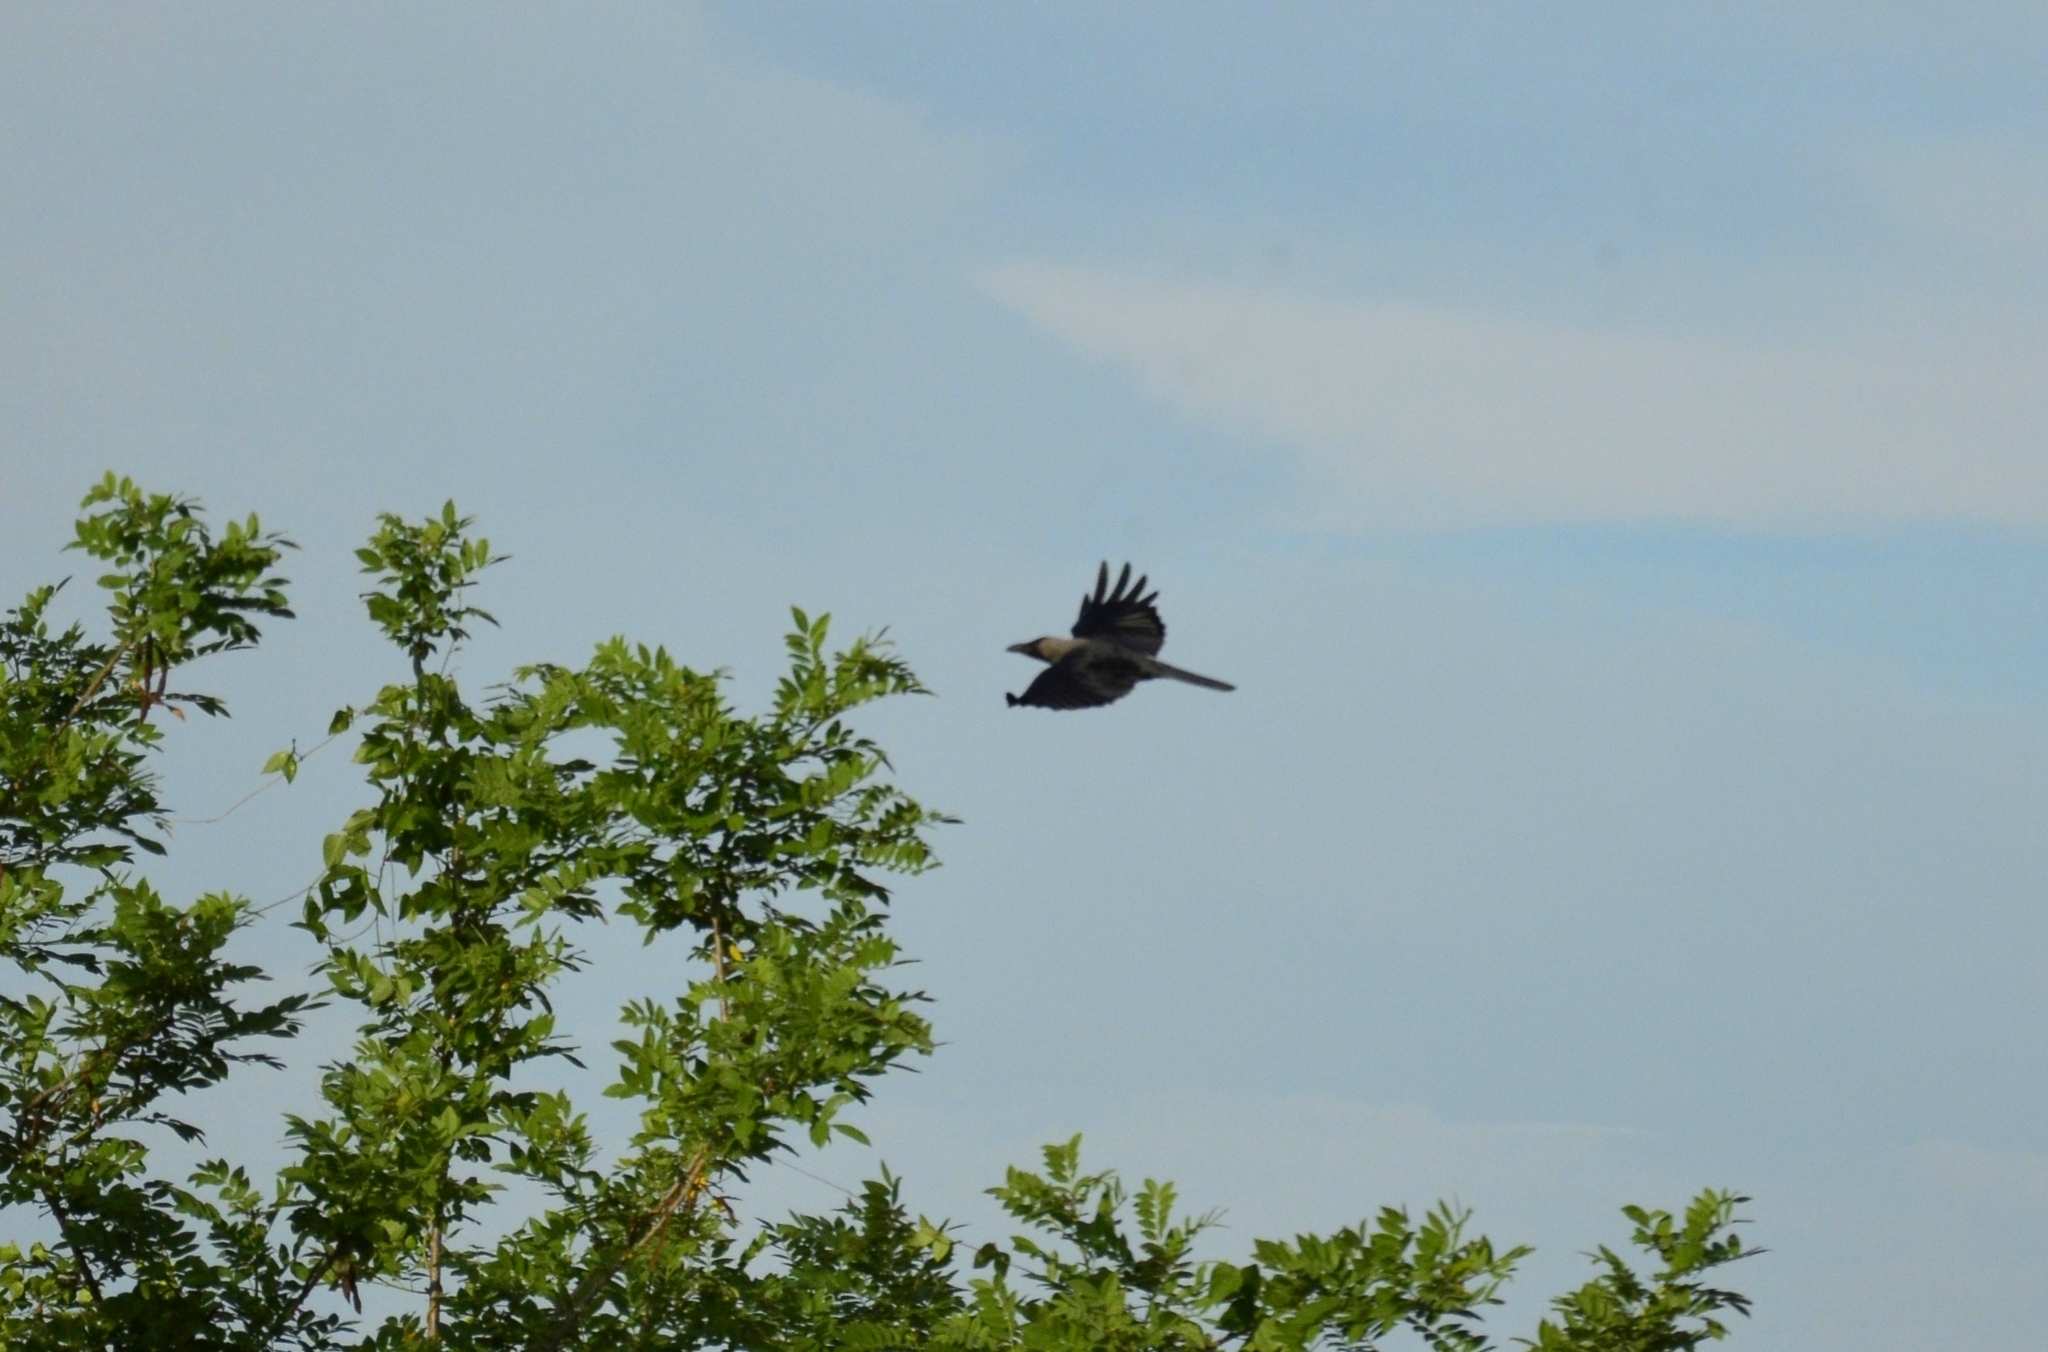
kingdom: Animalia
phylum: Chordata
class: Aves
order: Passeriformes
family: Corvidae
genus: Corvus
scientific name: Corvus splendens
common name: House crow
